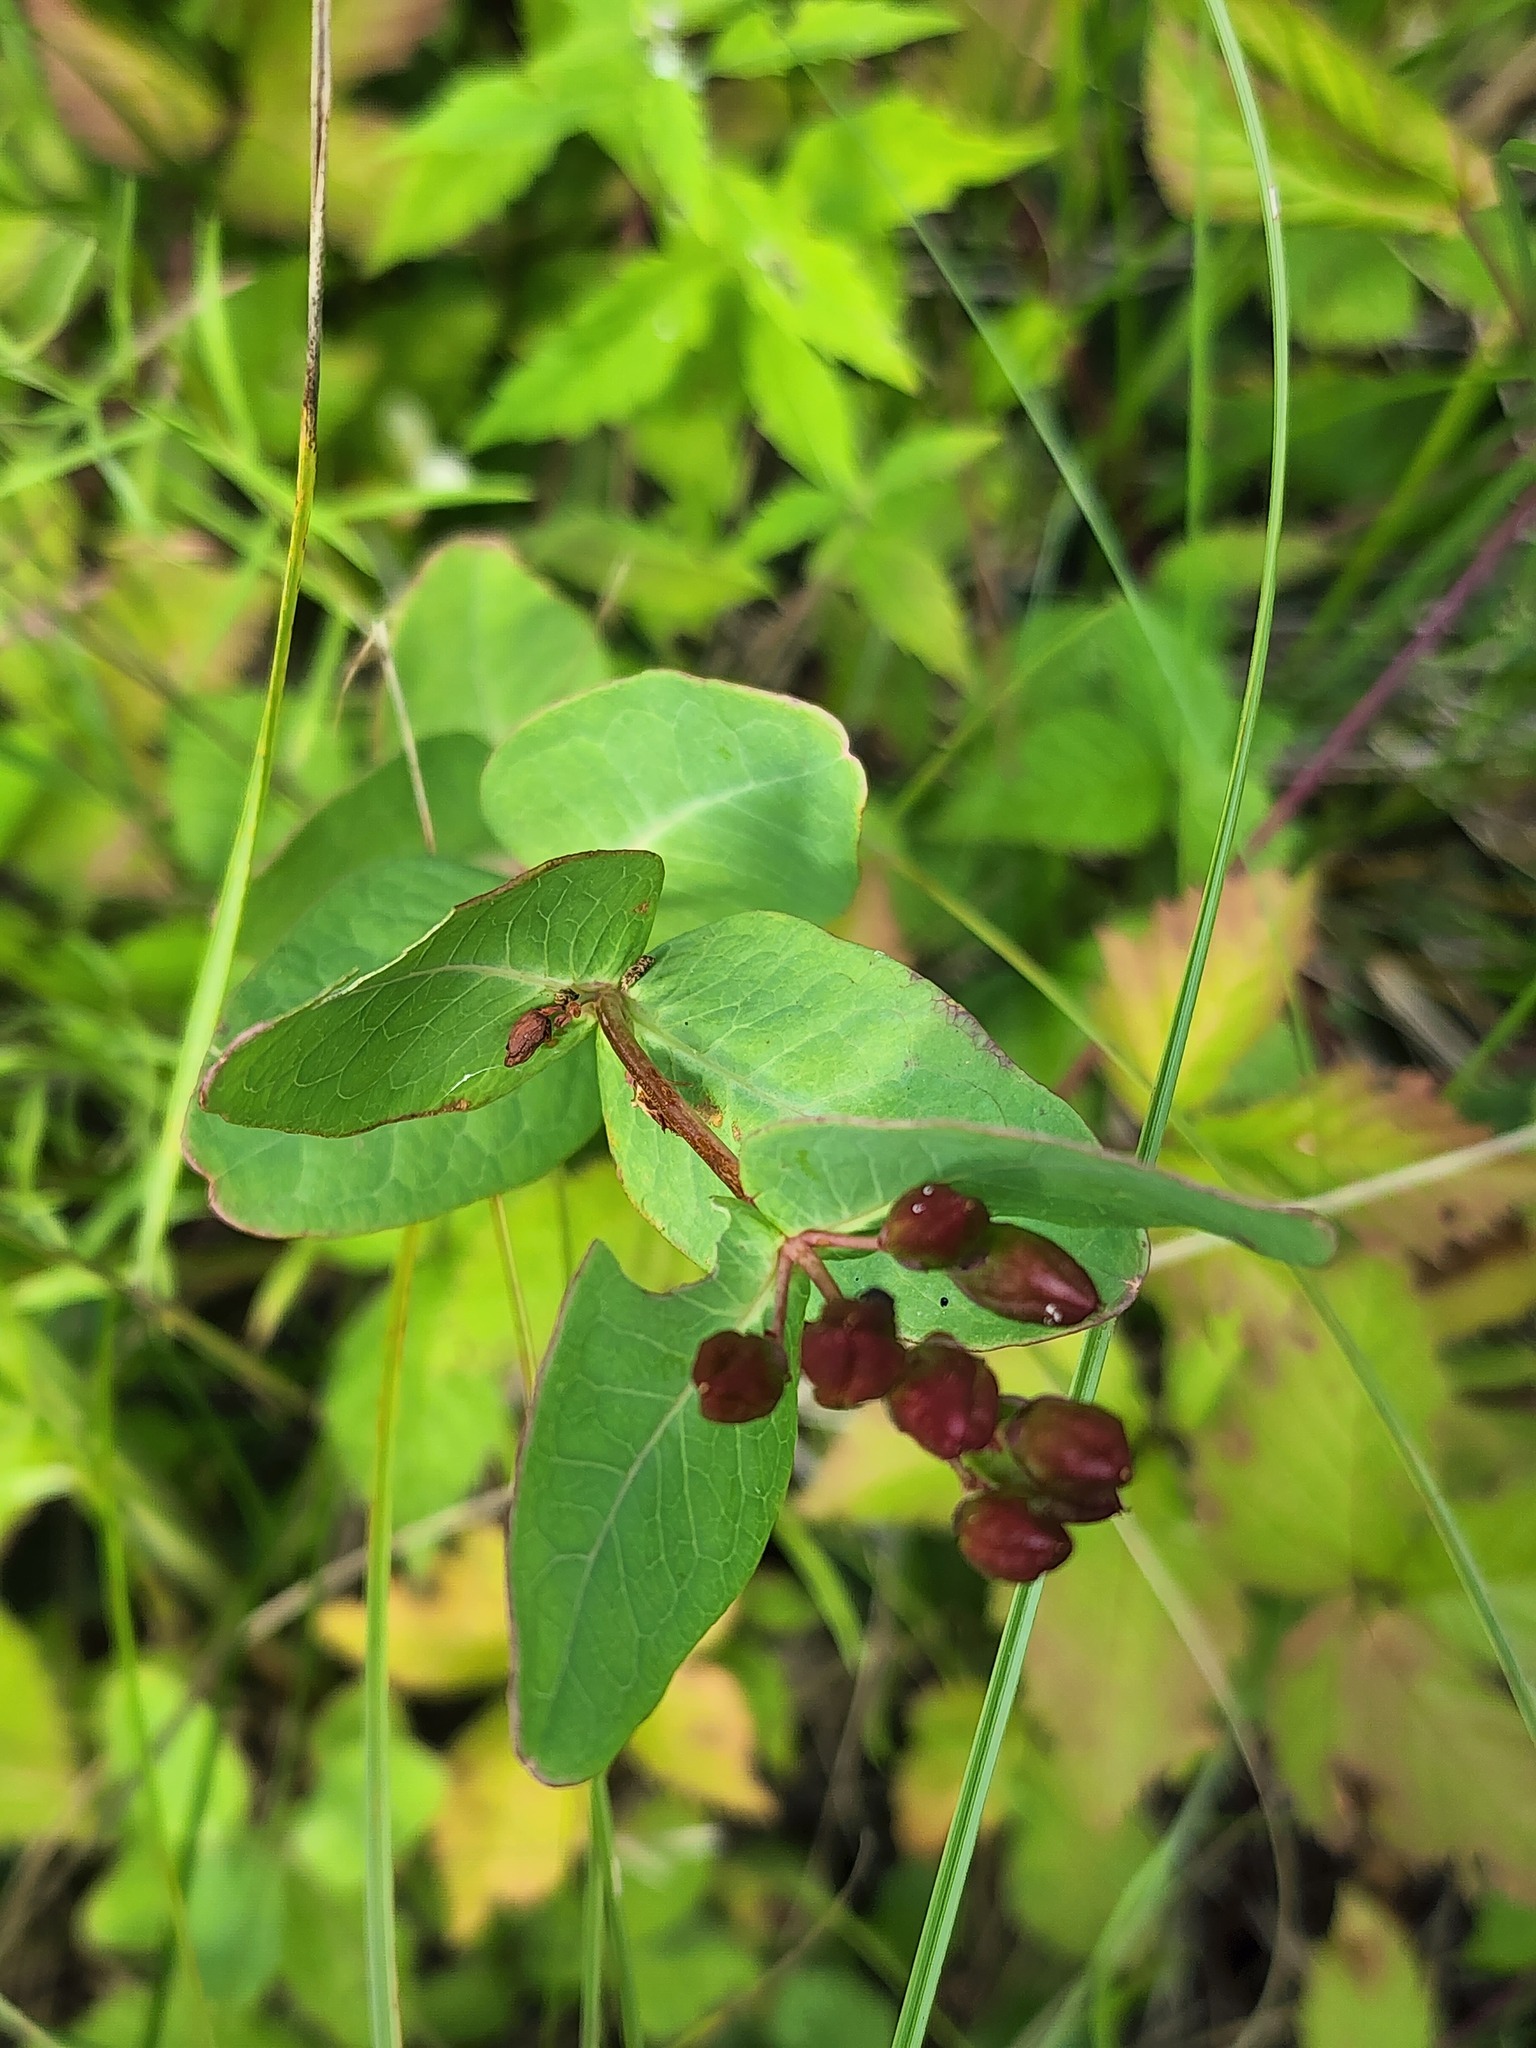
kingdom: Plantae
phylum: Tracheophyta
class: Magnoliopsida
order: Malpighiales
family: Hypericaceae
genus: Triadenum
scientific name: Triadenum fraseri
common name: Fraser's marsh st. johnswort
